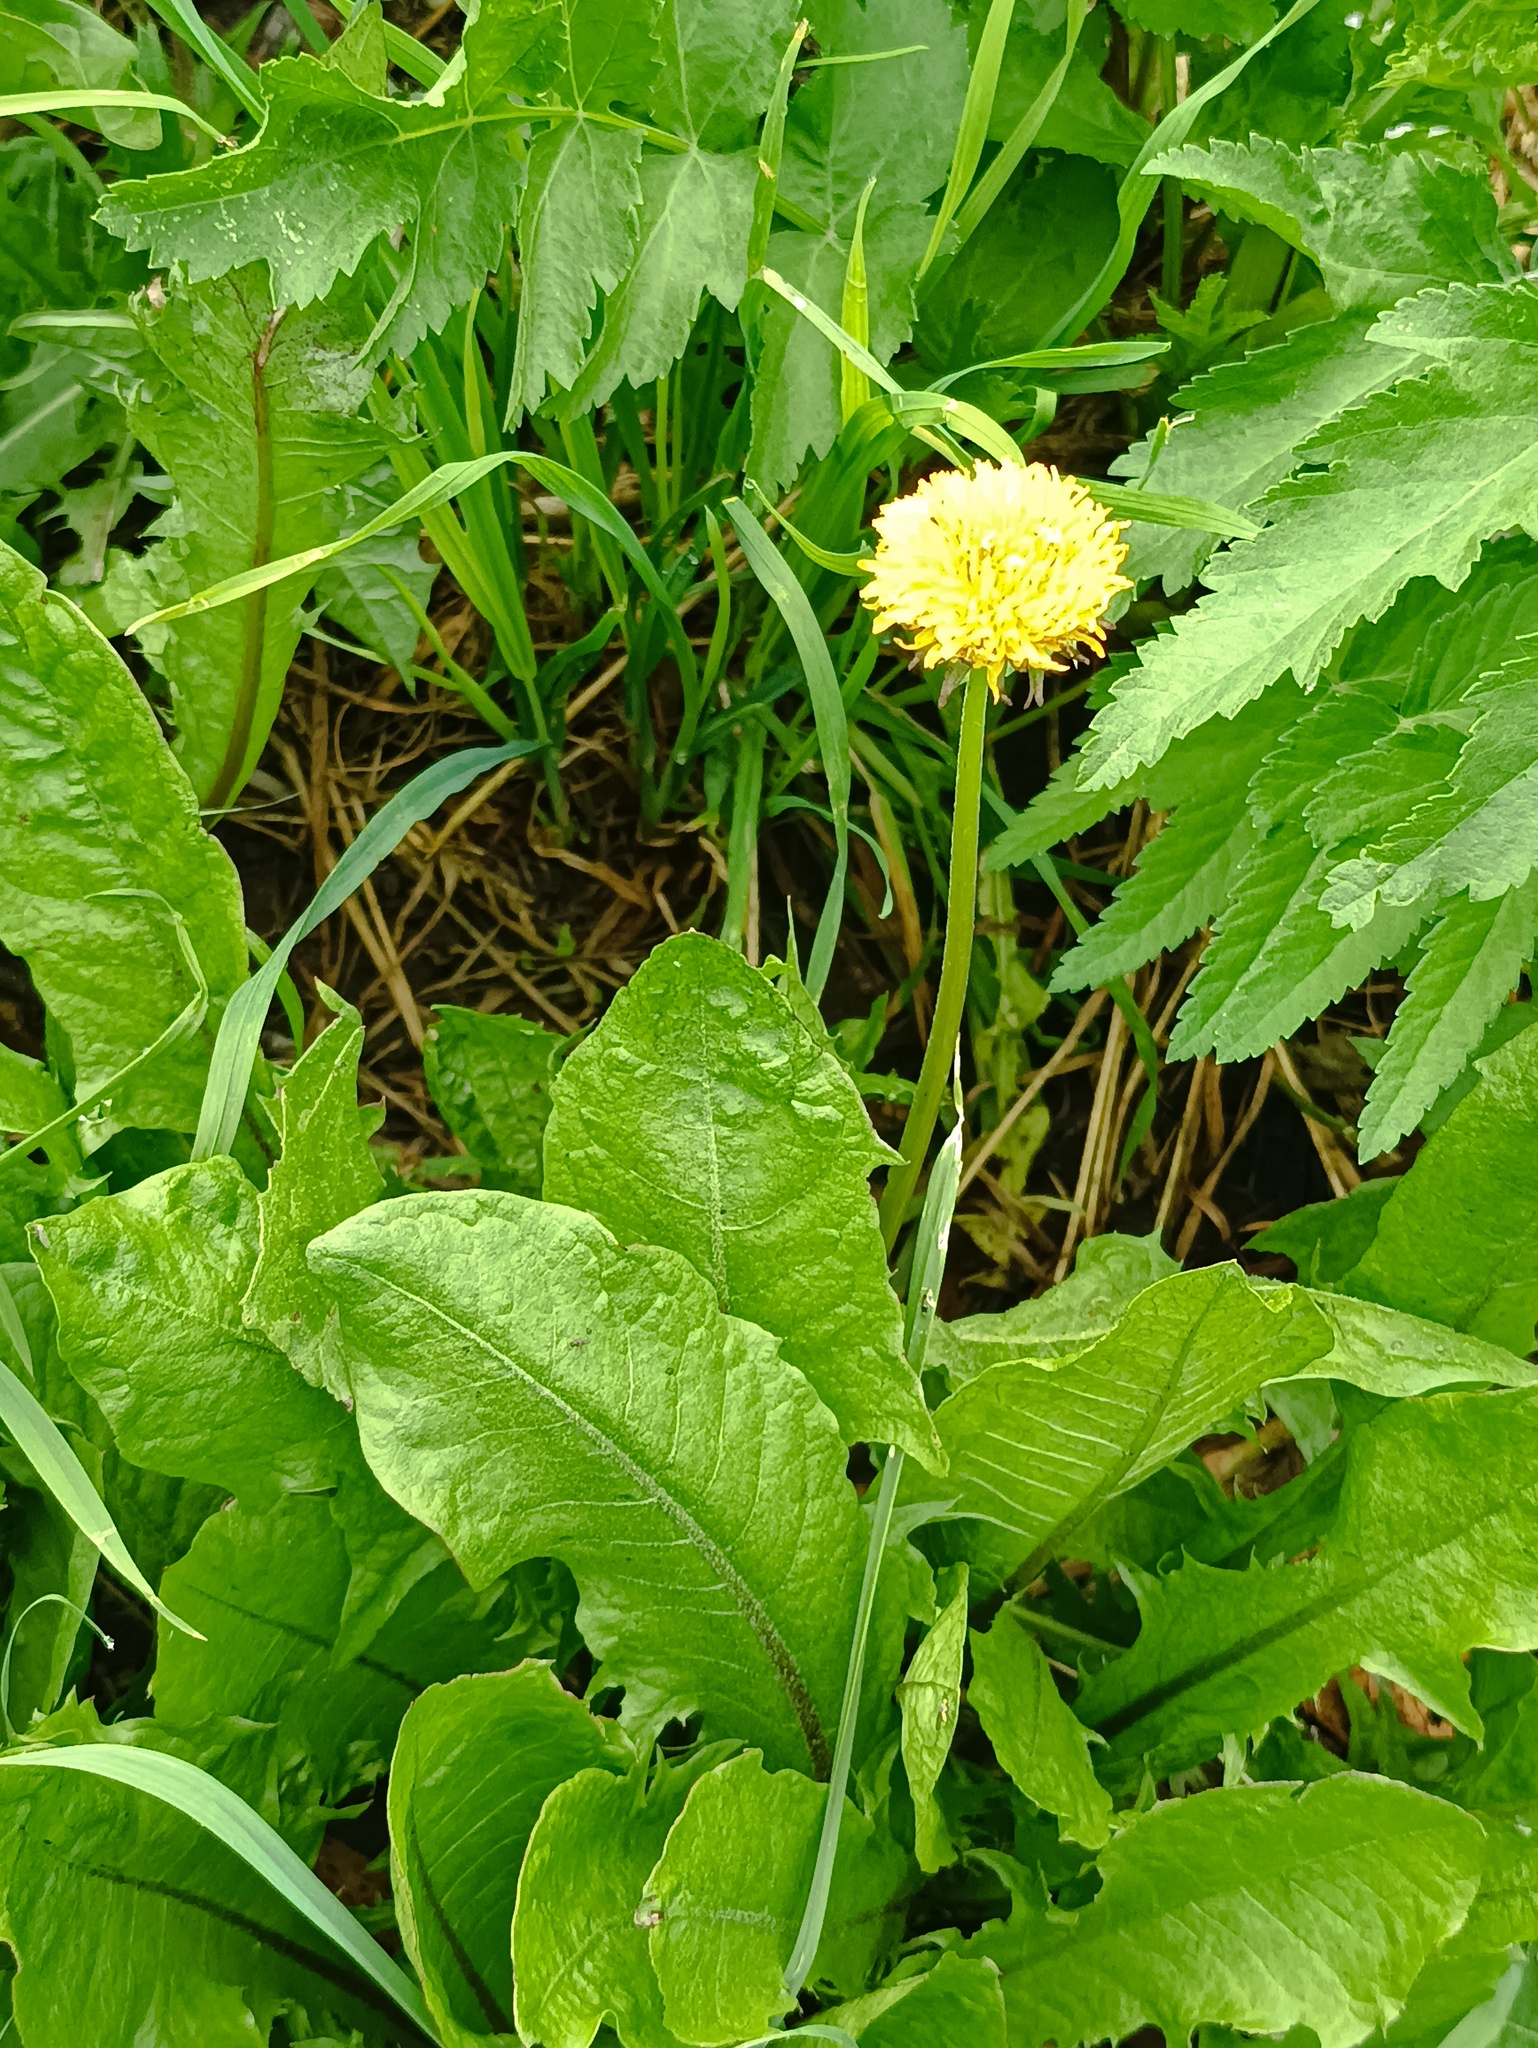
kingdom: Plantae
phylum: Tracheophyta
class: Magnoliopsida
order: Asterales
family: Asteraceae
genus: Taraxacum
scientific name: Taraxacum officinale
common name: Common dandelion
